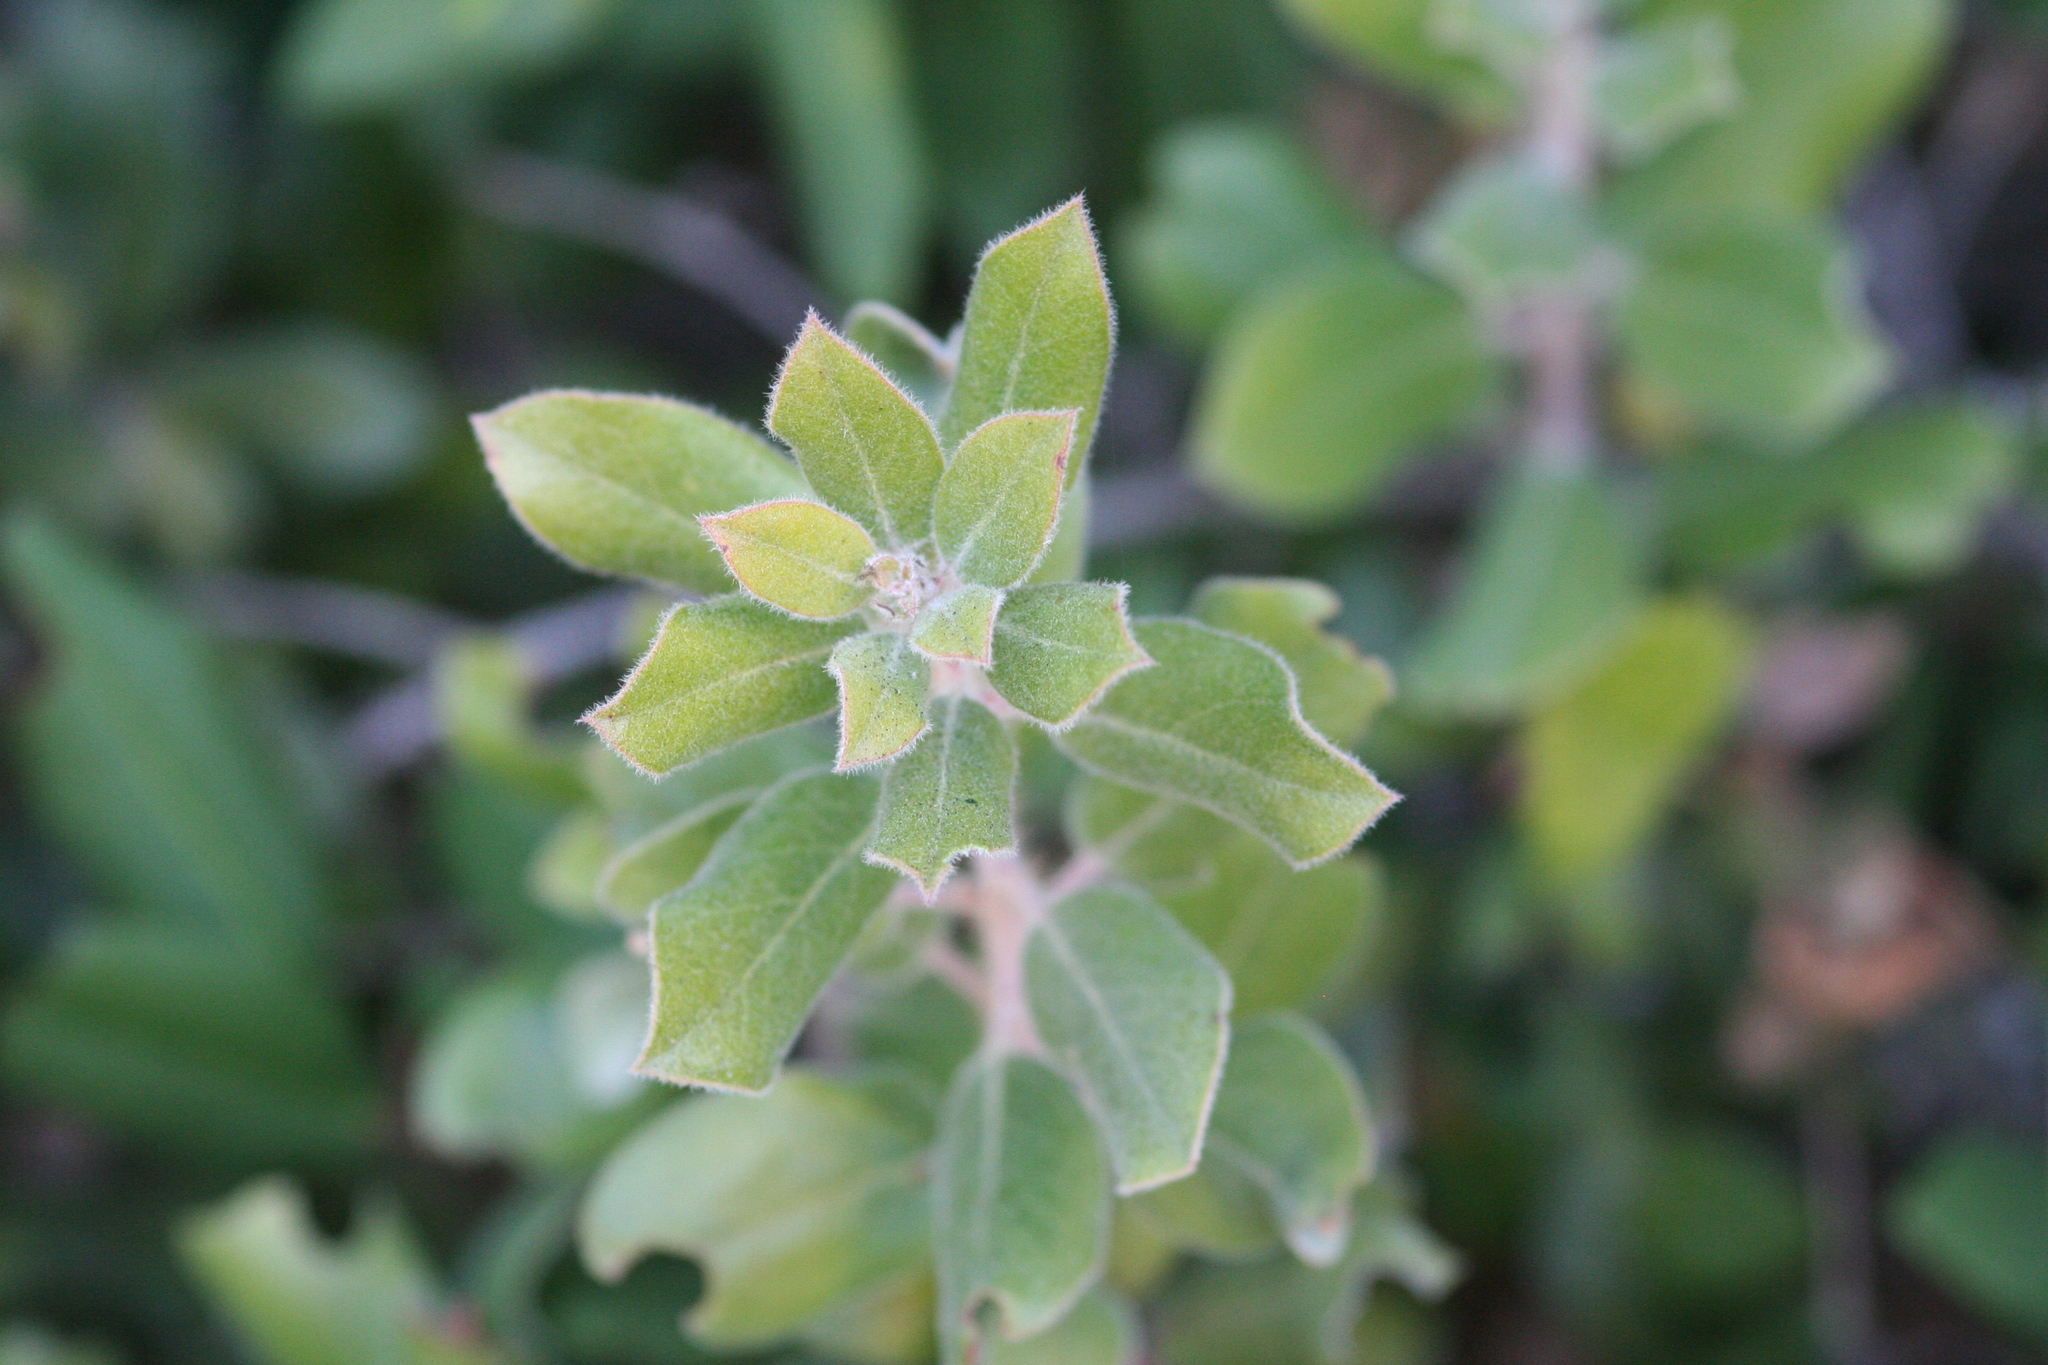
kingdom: Plantae
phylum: Tracheophyta
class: Magnoliopsida
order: Ericales
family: Ericaceae
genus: Arctostaphylos
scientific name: Arctostaphylos crustacea
